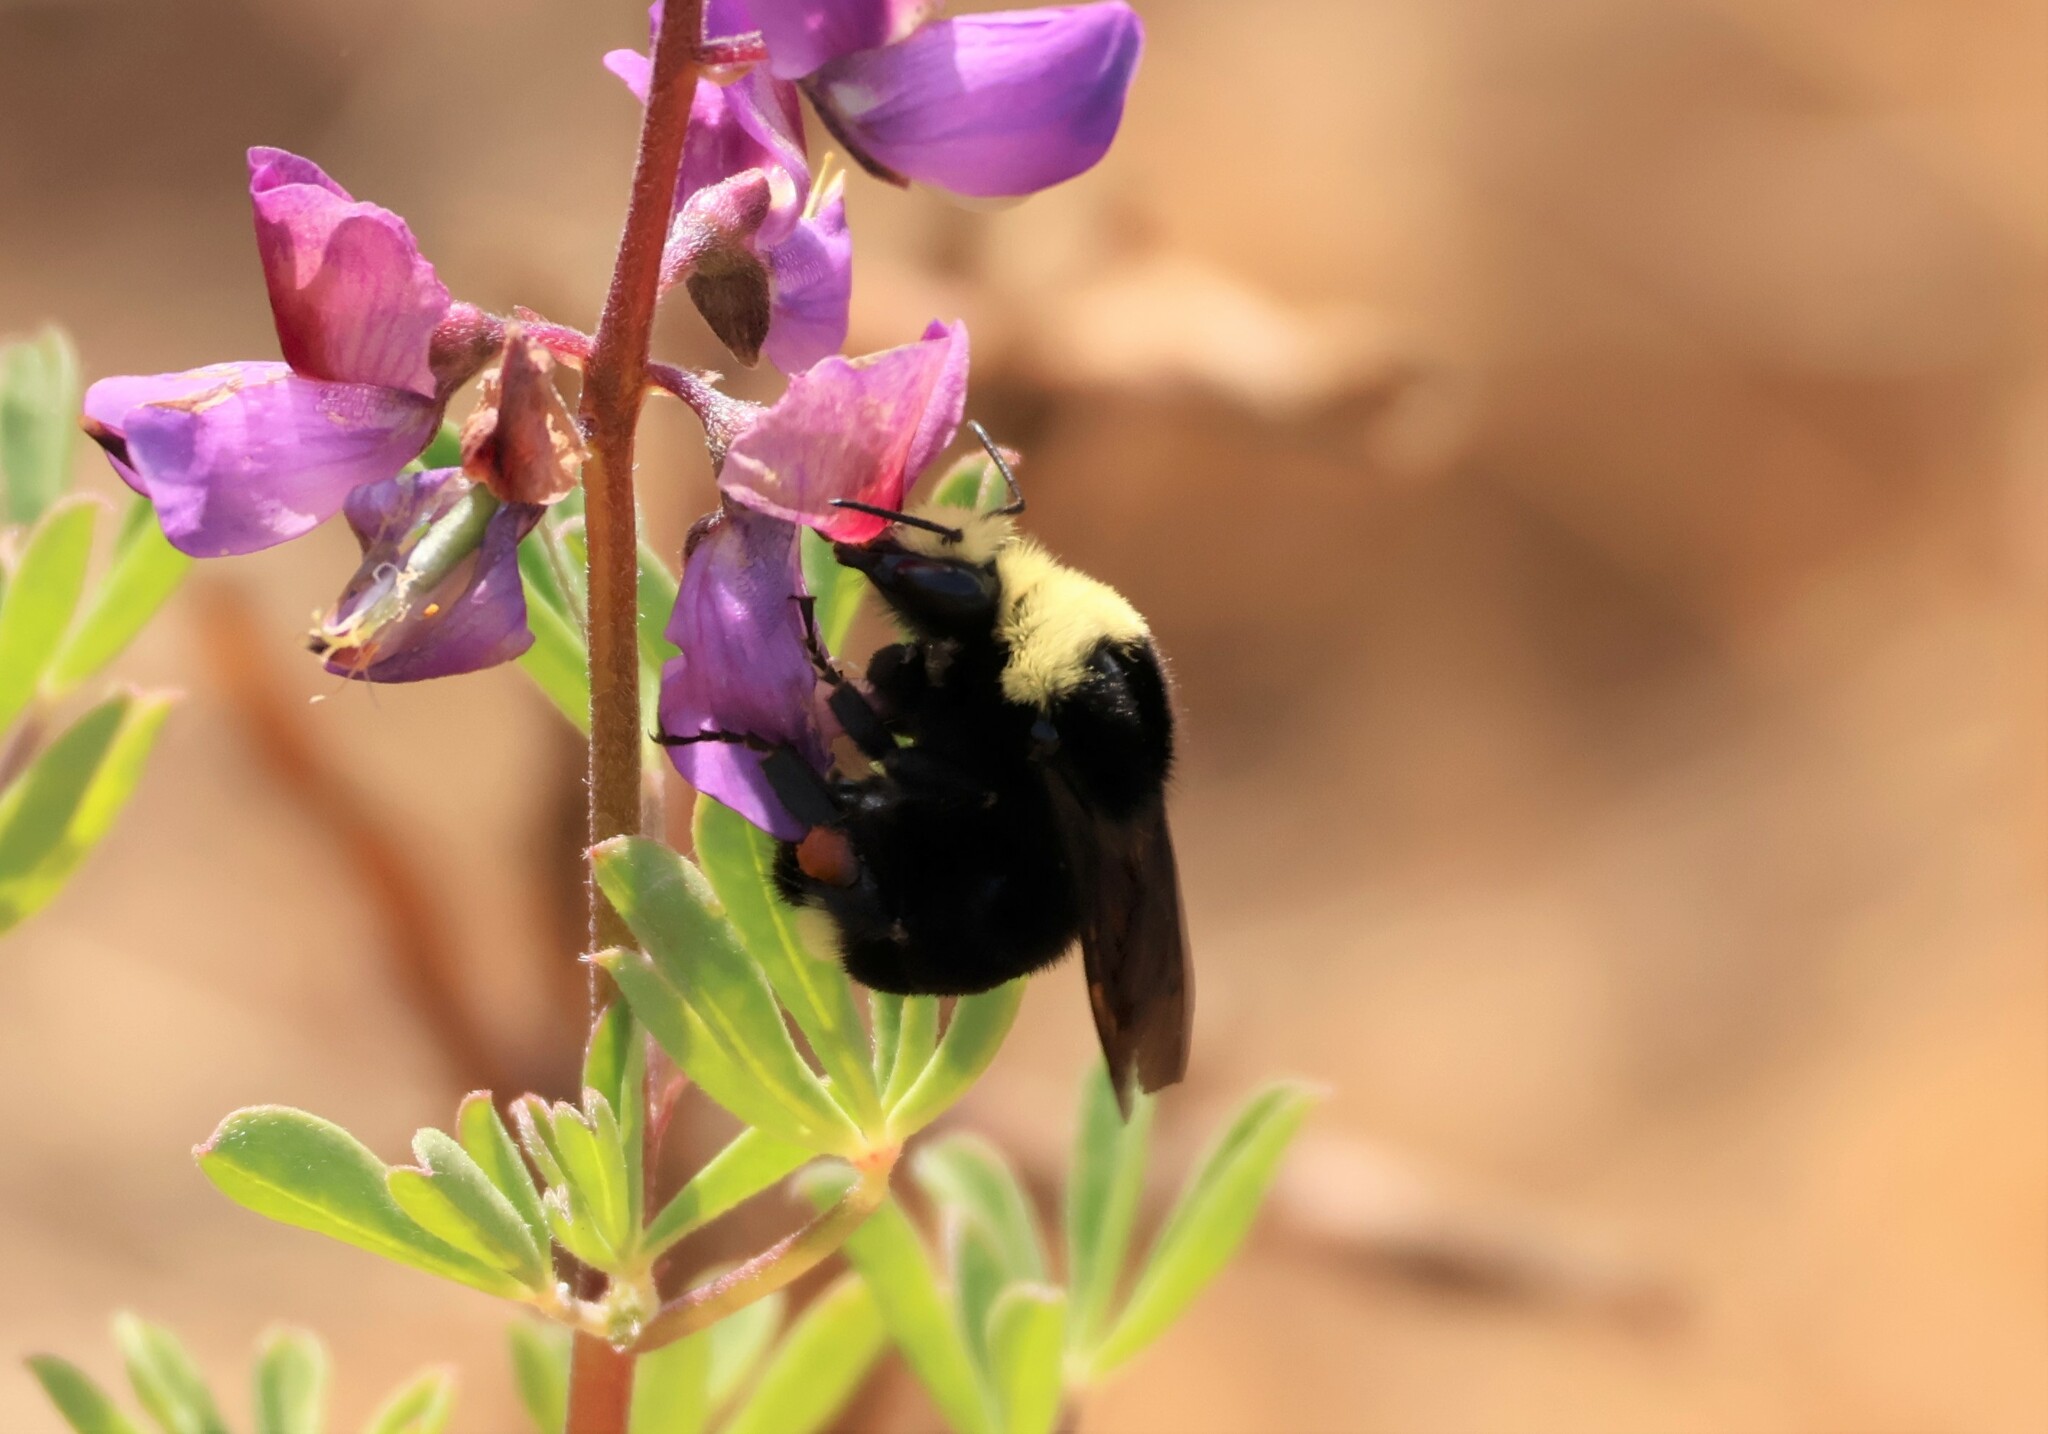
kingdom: Animalia
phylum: Arthropoda
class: Insecta
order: Hymenoptera
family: Apidae
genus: Bombus
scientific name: Bombus vosnesenskii
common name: Vosnesensky bumble bee
